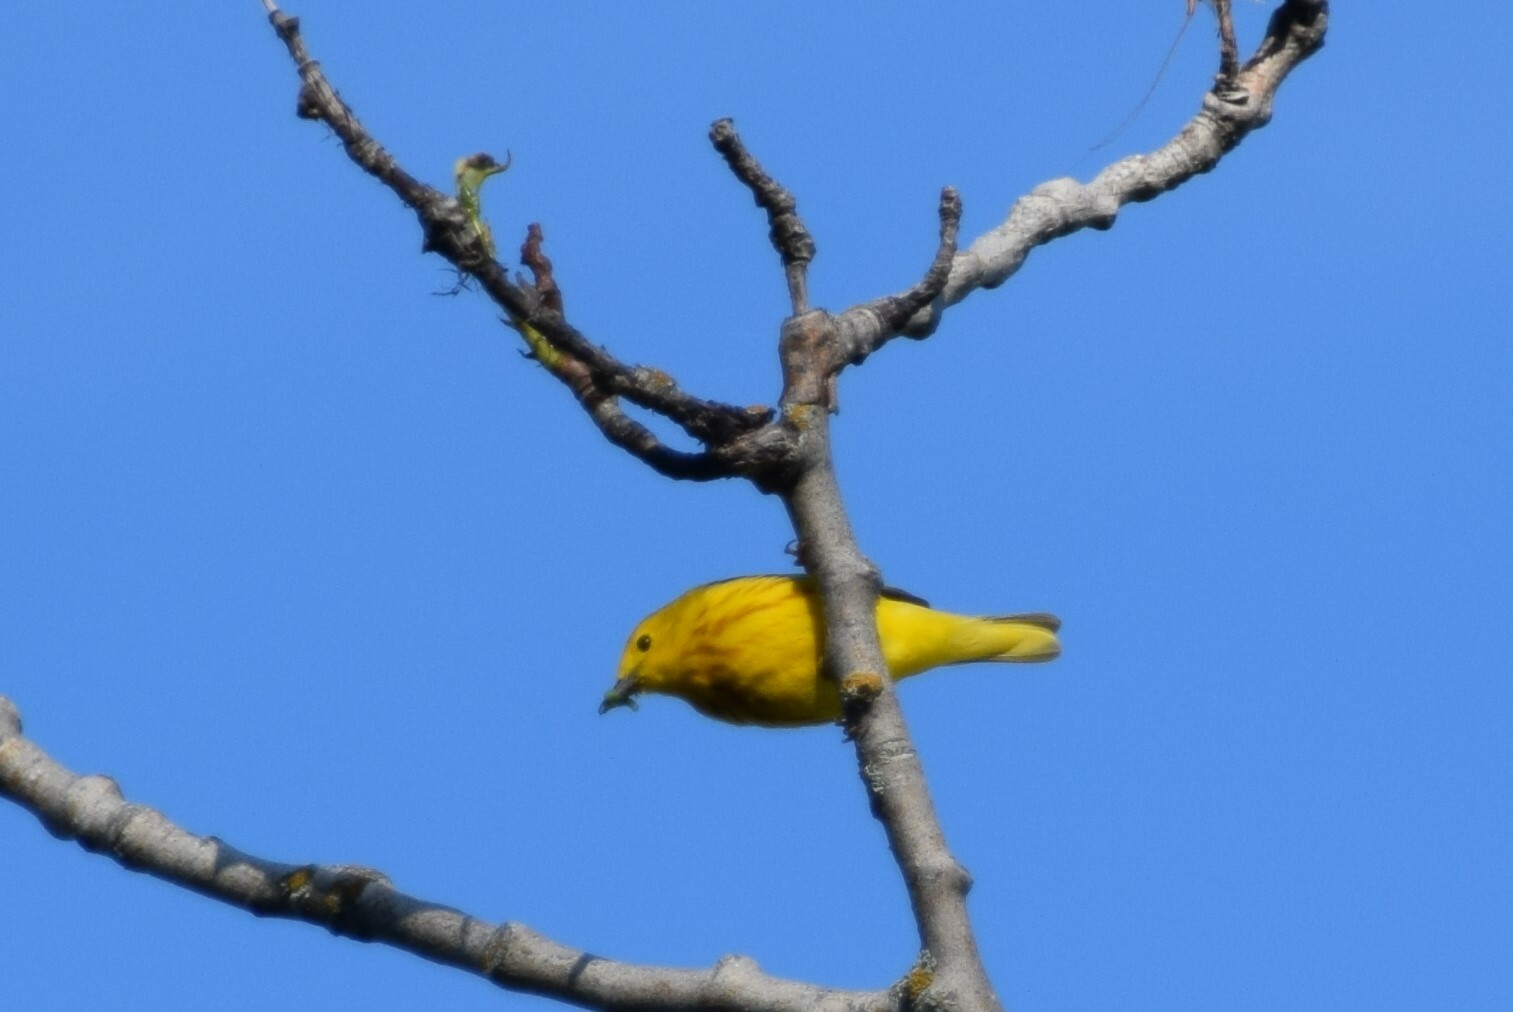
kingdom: Animalia
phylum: Chordata
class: Aves
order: Passeriformes
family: Parulidae
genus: Setophaga
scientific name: Setophaga petechia
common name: Yellow warbler
